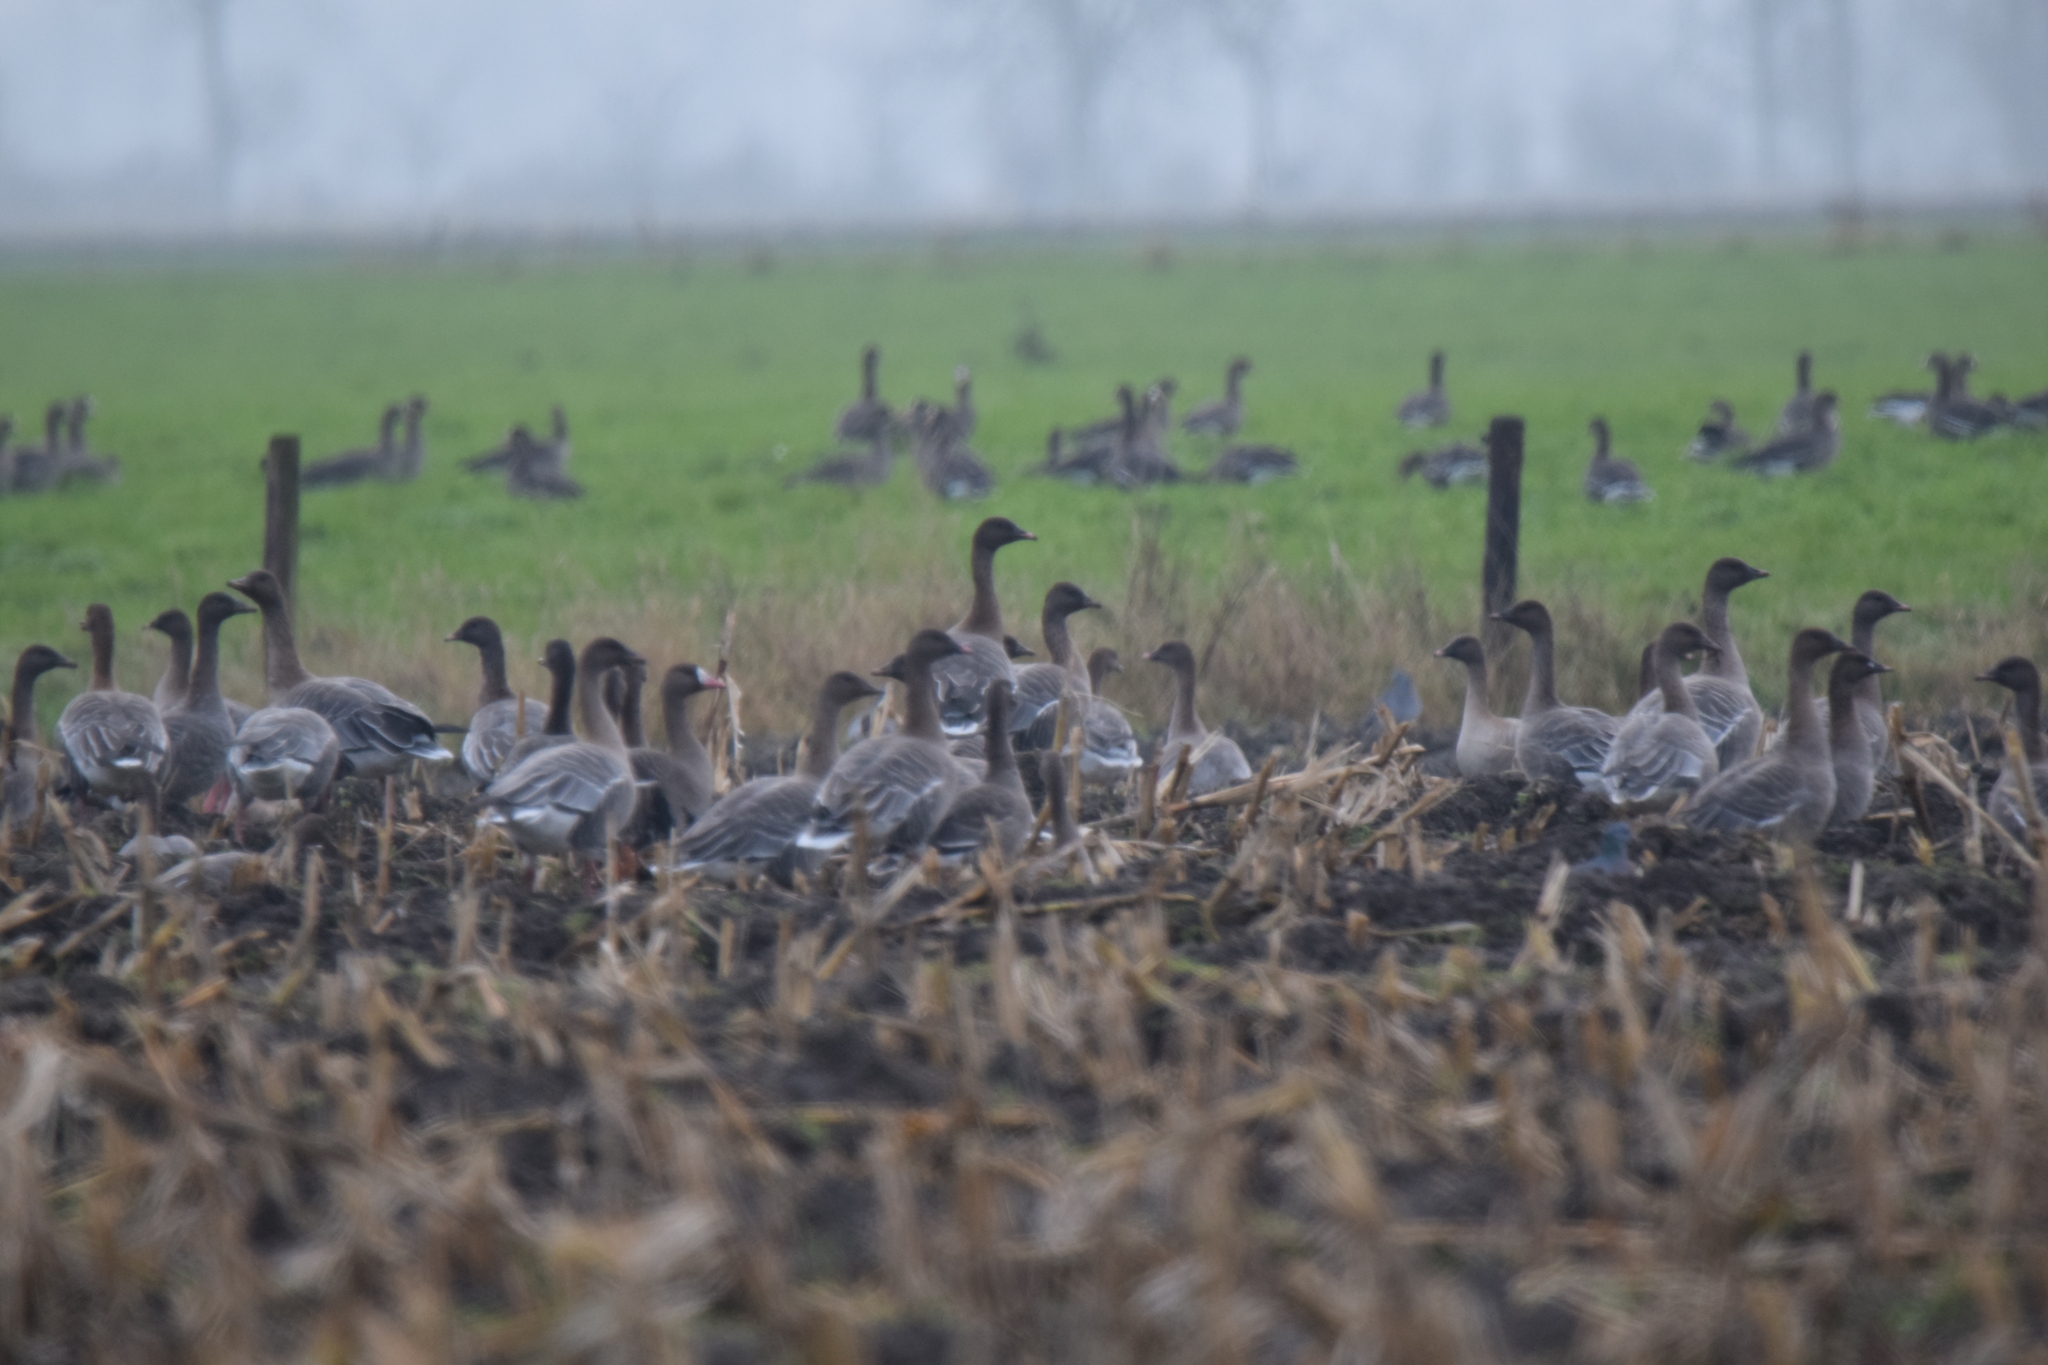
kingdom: Animalia
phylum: Chordata
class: Aves
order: Anseriformes
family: Anatidae
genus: Anser
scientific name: Anser brachyrhynchus
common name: Pink-footed goose
